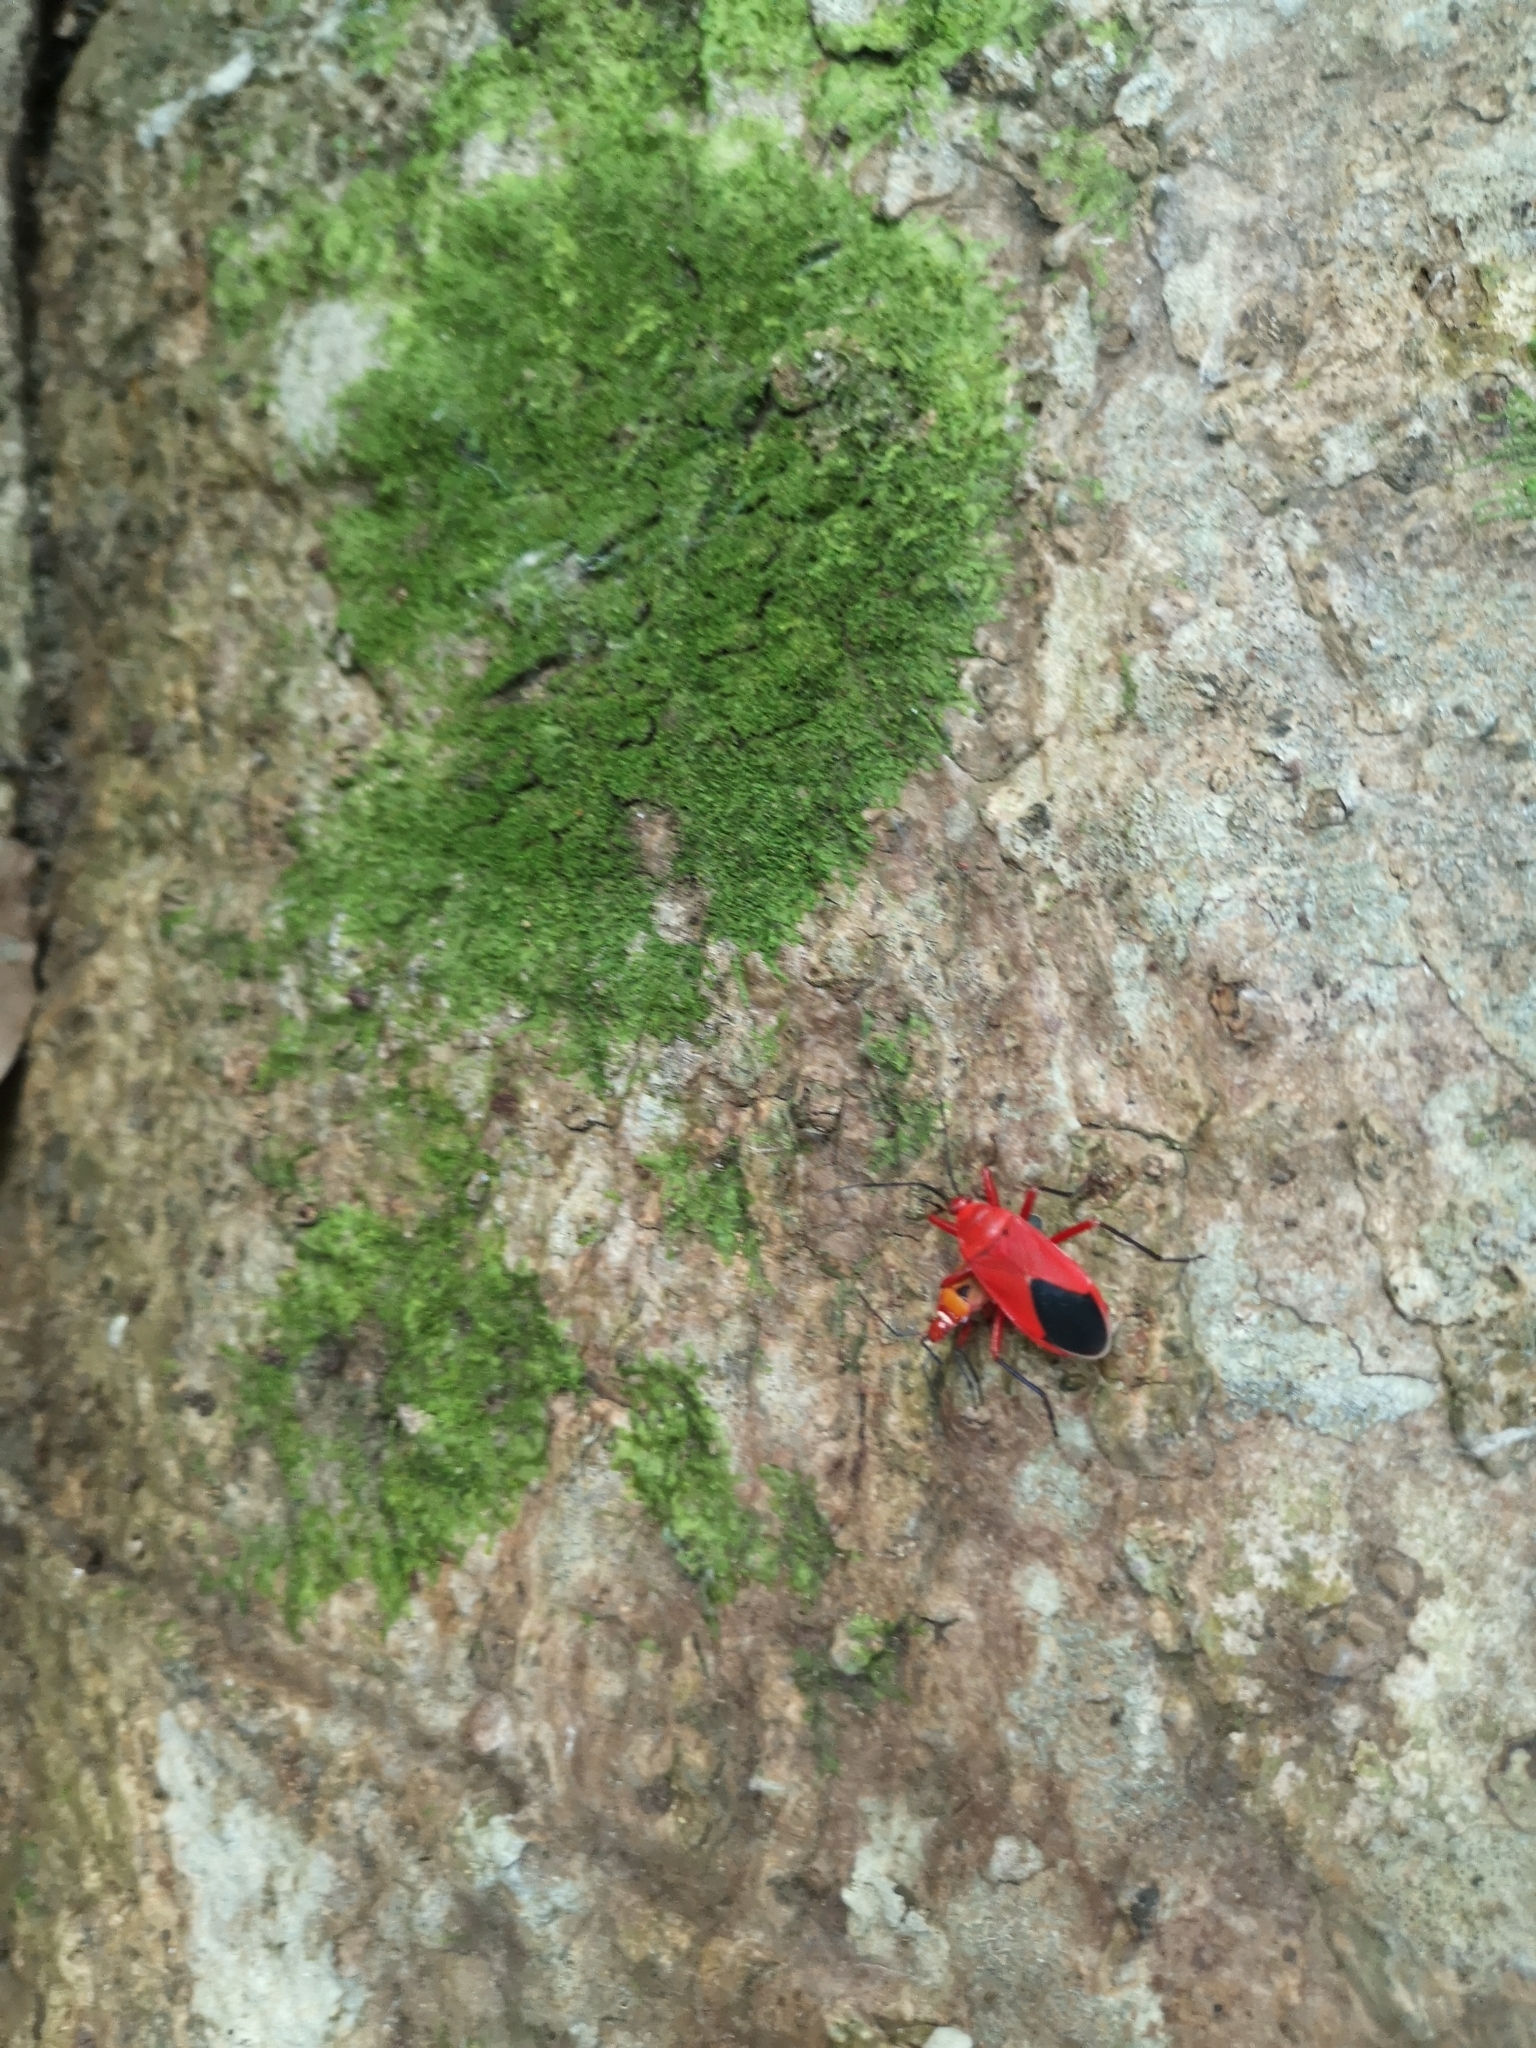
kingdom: Animalia
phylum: Arthropoda
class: Insecta
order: Hemiptera
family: Pyrrhocoridae
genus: Antilochus
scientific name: Antilochus coquebertii
